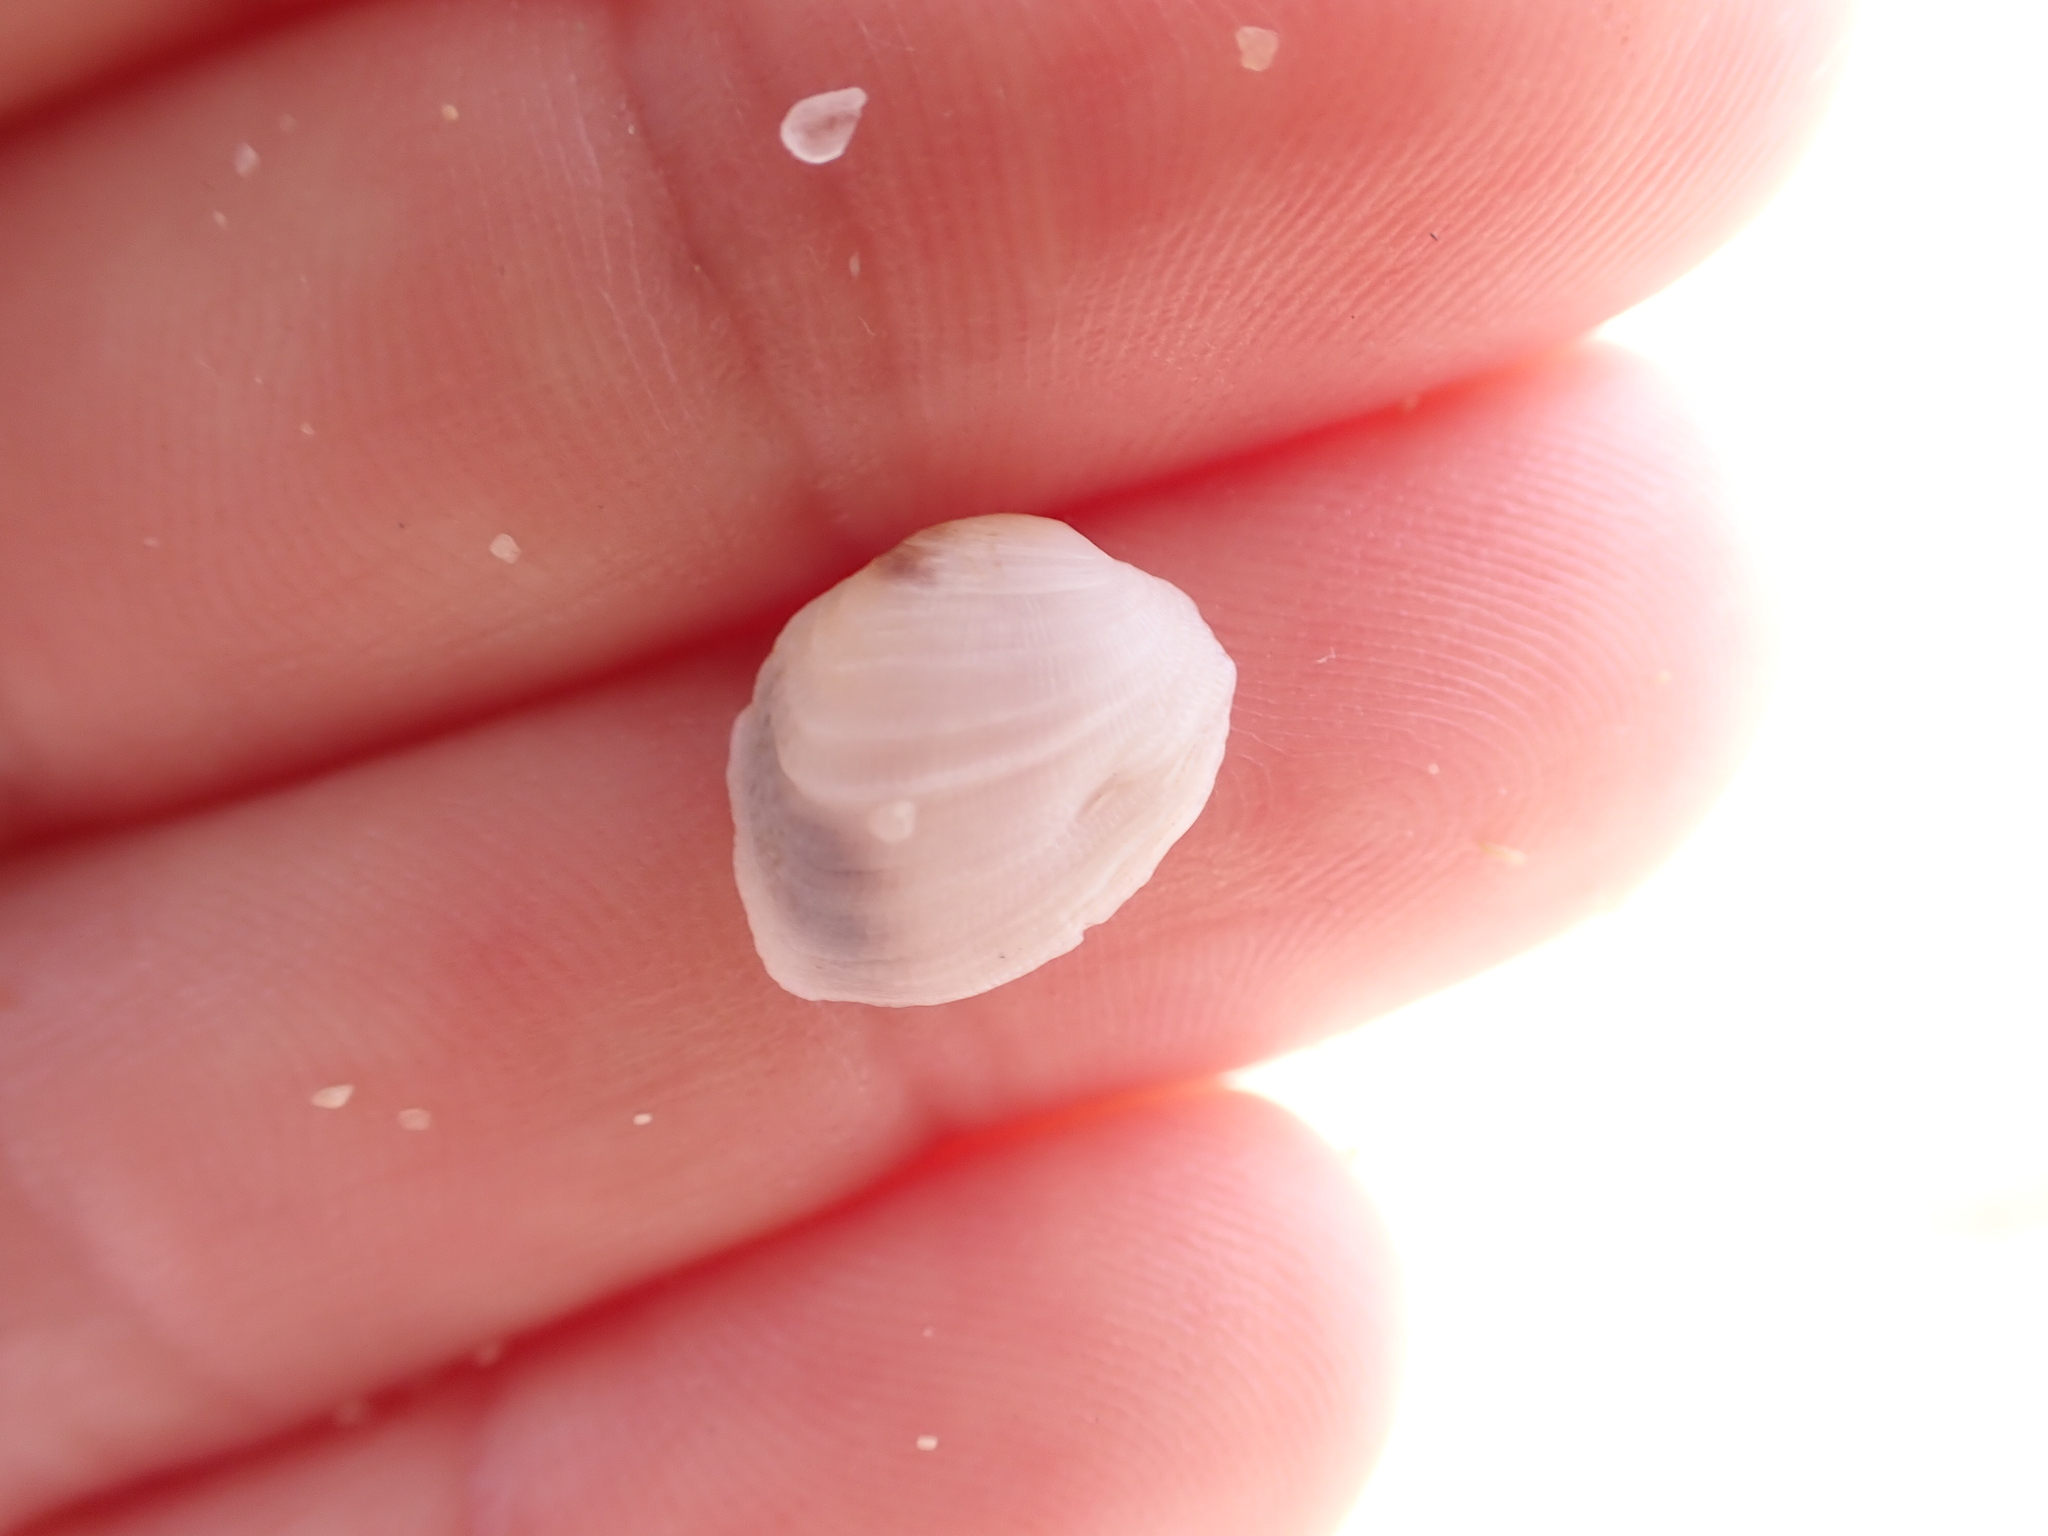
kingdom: Animalia
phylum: Mollusca
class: Bivalvia
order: Venerida
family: Veneridae
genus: Irus
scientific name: Irus irus
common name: Irus clam
